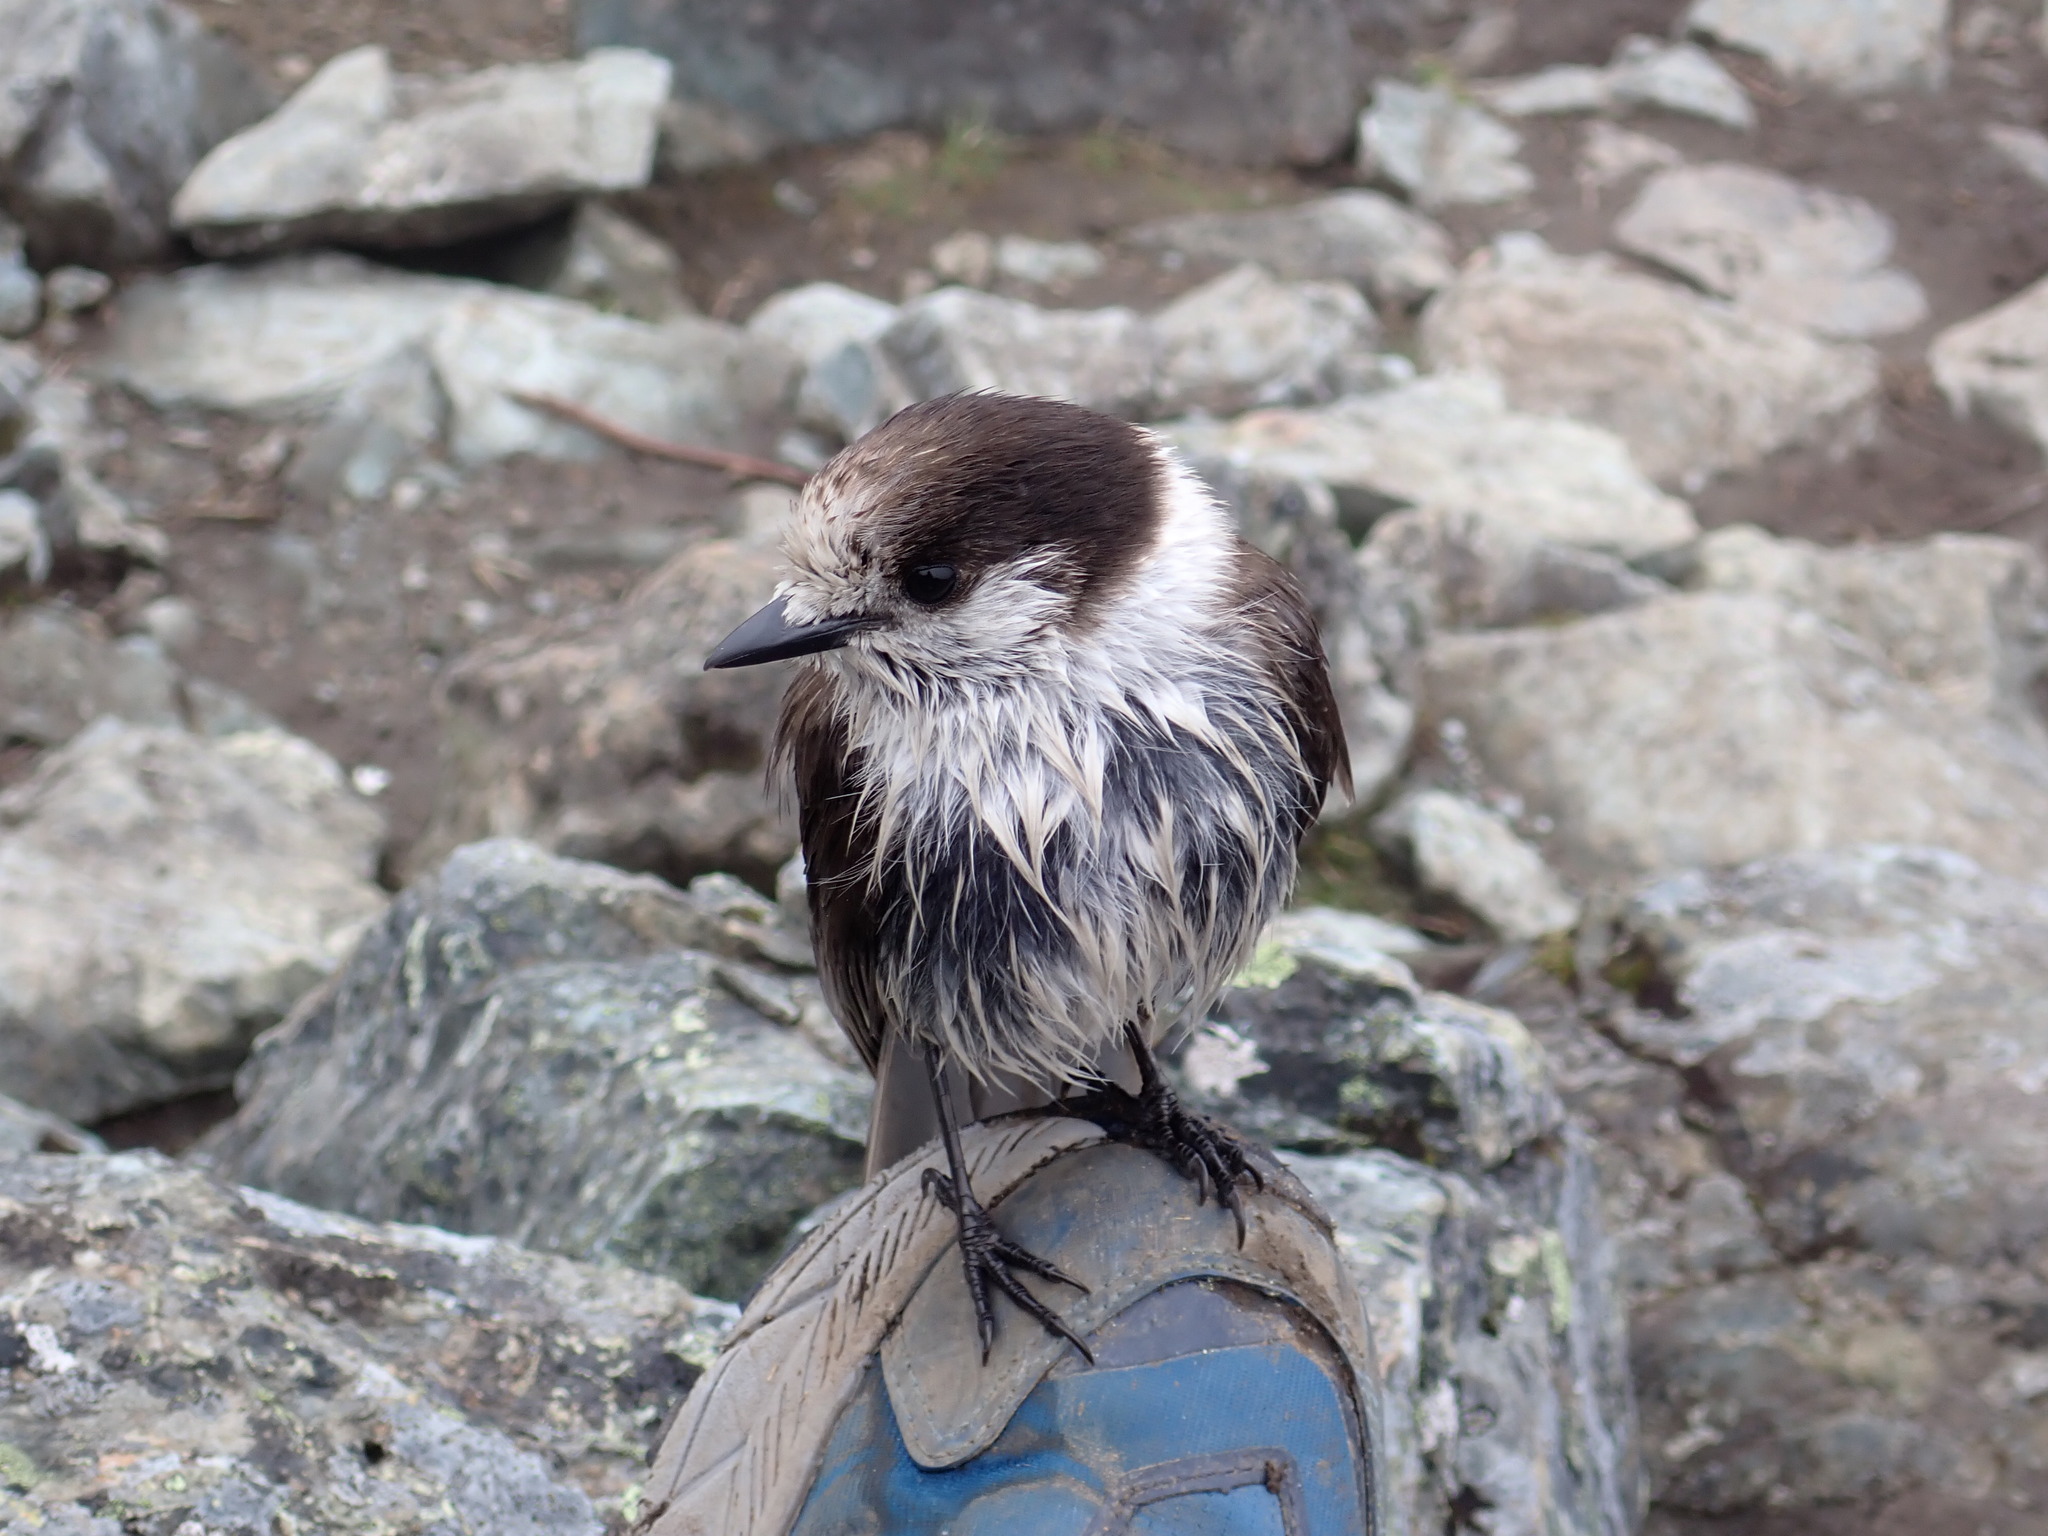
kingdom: Animalia
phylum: Chordata
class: Aves
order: Passeriformes
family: Corvidae
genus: Perisoreus
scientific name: Perisoreus canadensis
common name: Gray jay
